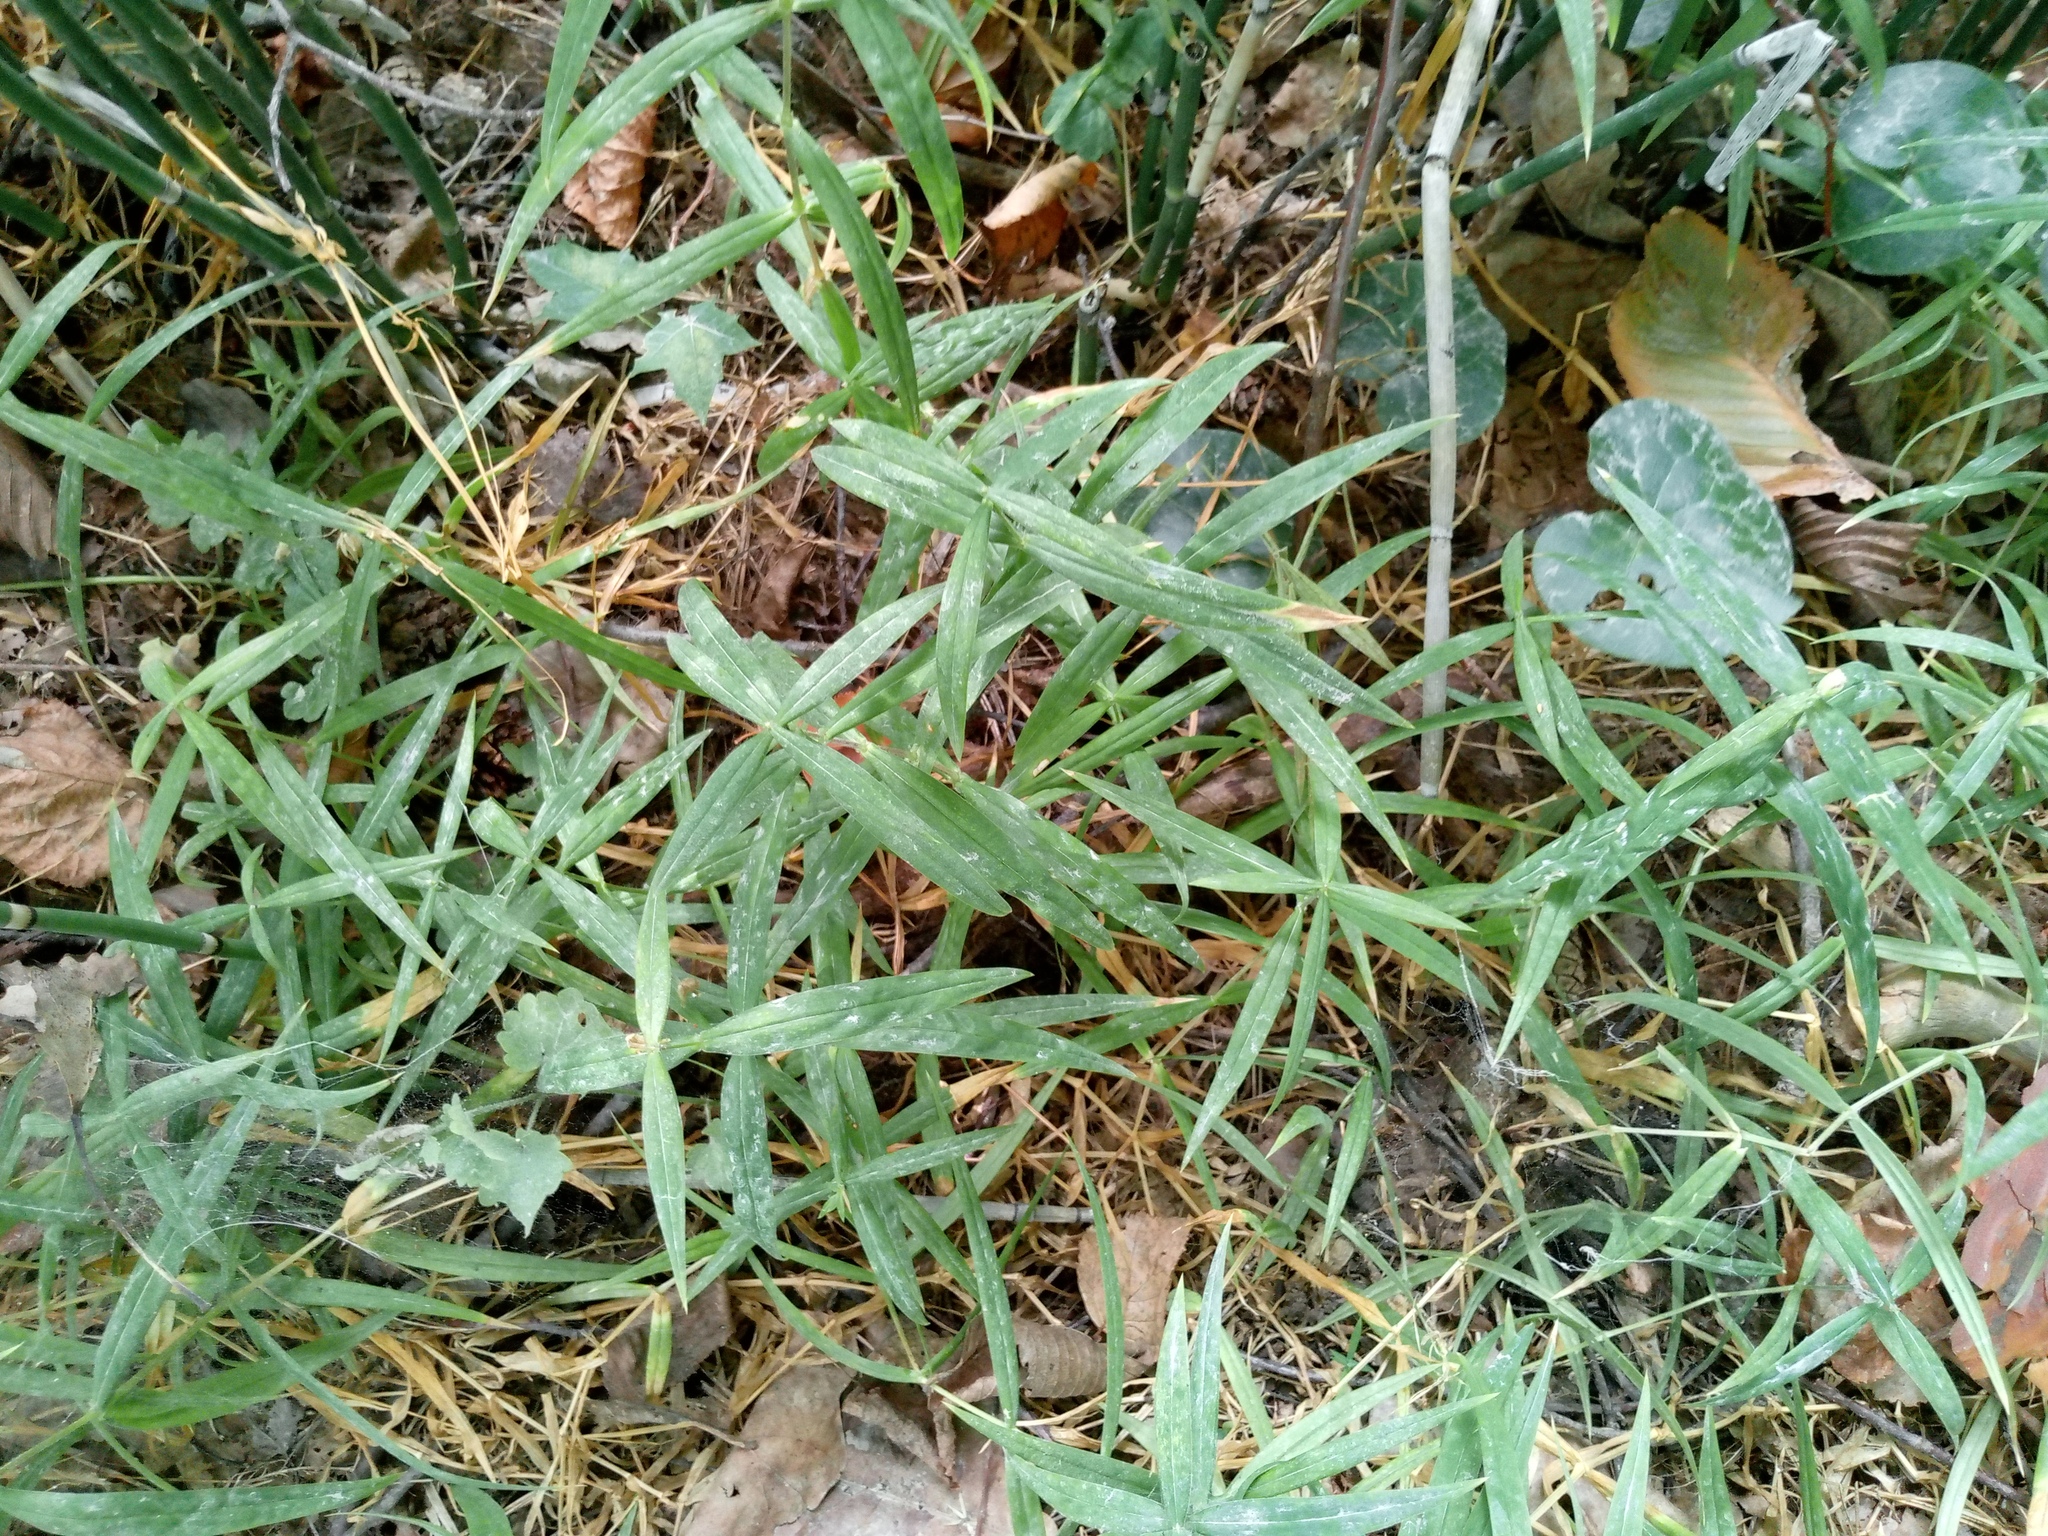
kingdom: Plantae
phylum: Tracheophyta
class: Magnoliopsida
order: Caryophyllales
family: Caryophyllaceae
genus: Rabelera
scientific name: Rabelera holostea
